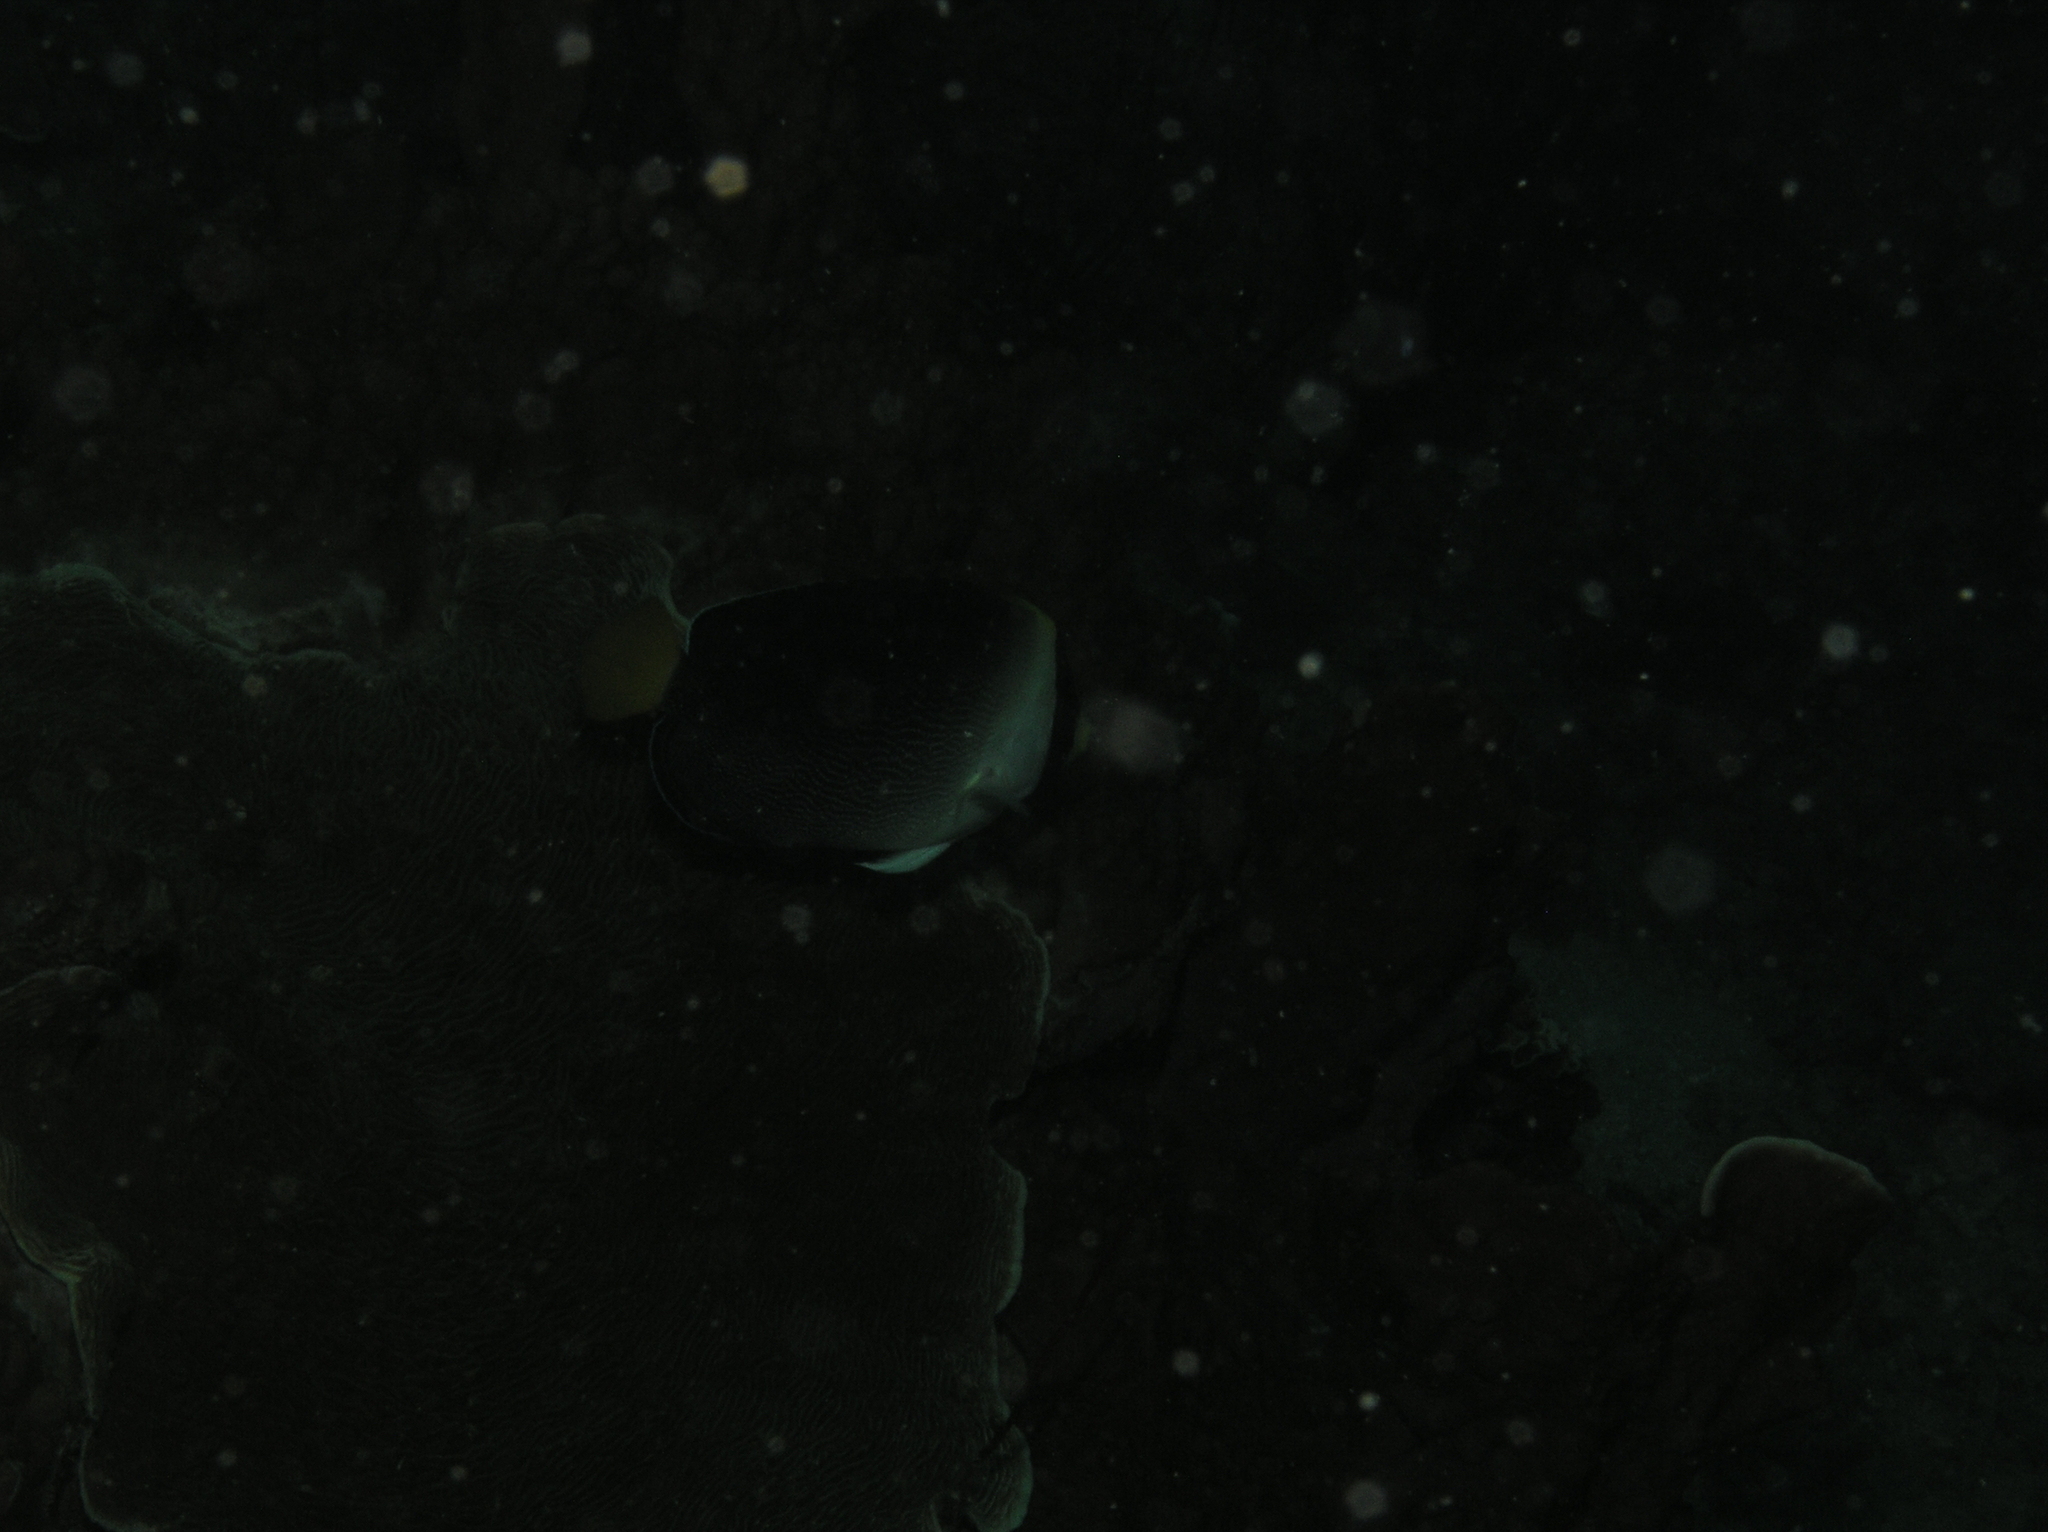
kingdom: Animalia
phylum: Chordata
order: Perciformes
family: Pomacanthidae
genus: Chaetodontoplus
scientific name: Chaetodontoplus mesoleucus
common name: Vermiculated angelfish
